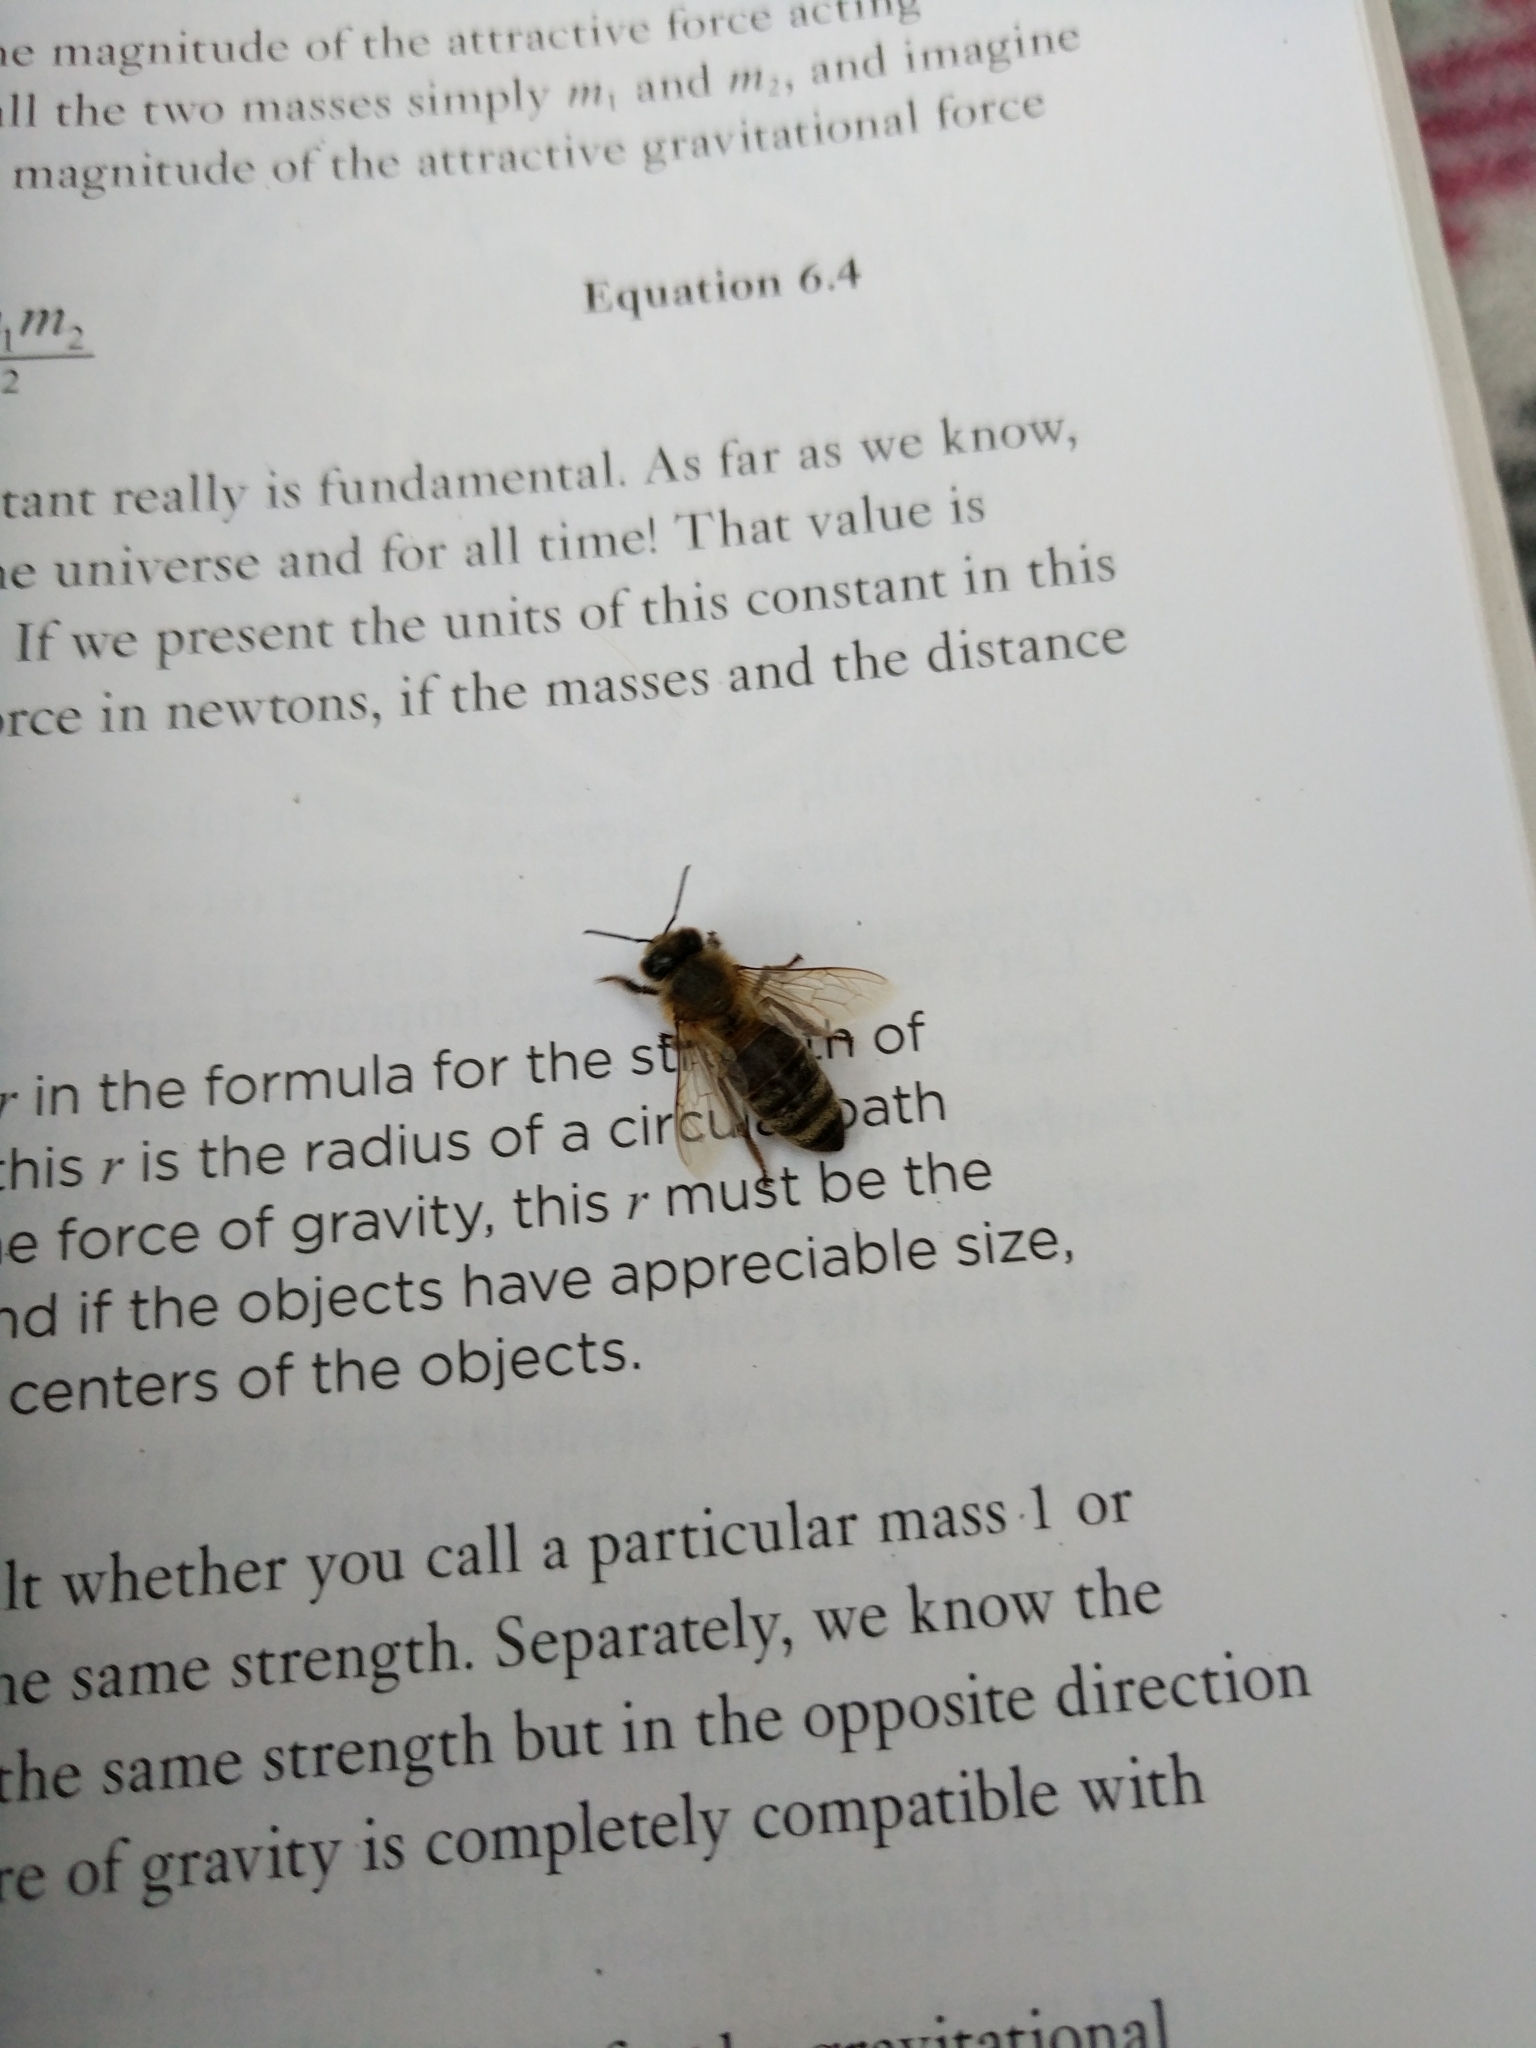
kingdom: Animalia
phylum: Arthropoda
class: Insecta
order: Hymenoptera
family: Apidae
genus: Apis
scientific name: Apis mellifera
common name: Honey bee
